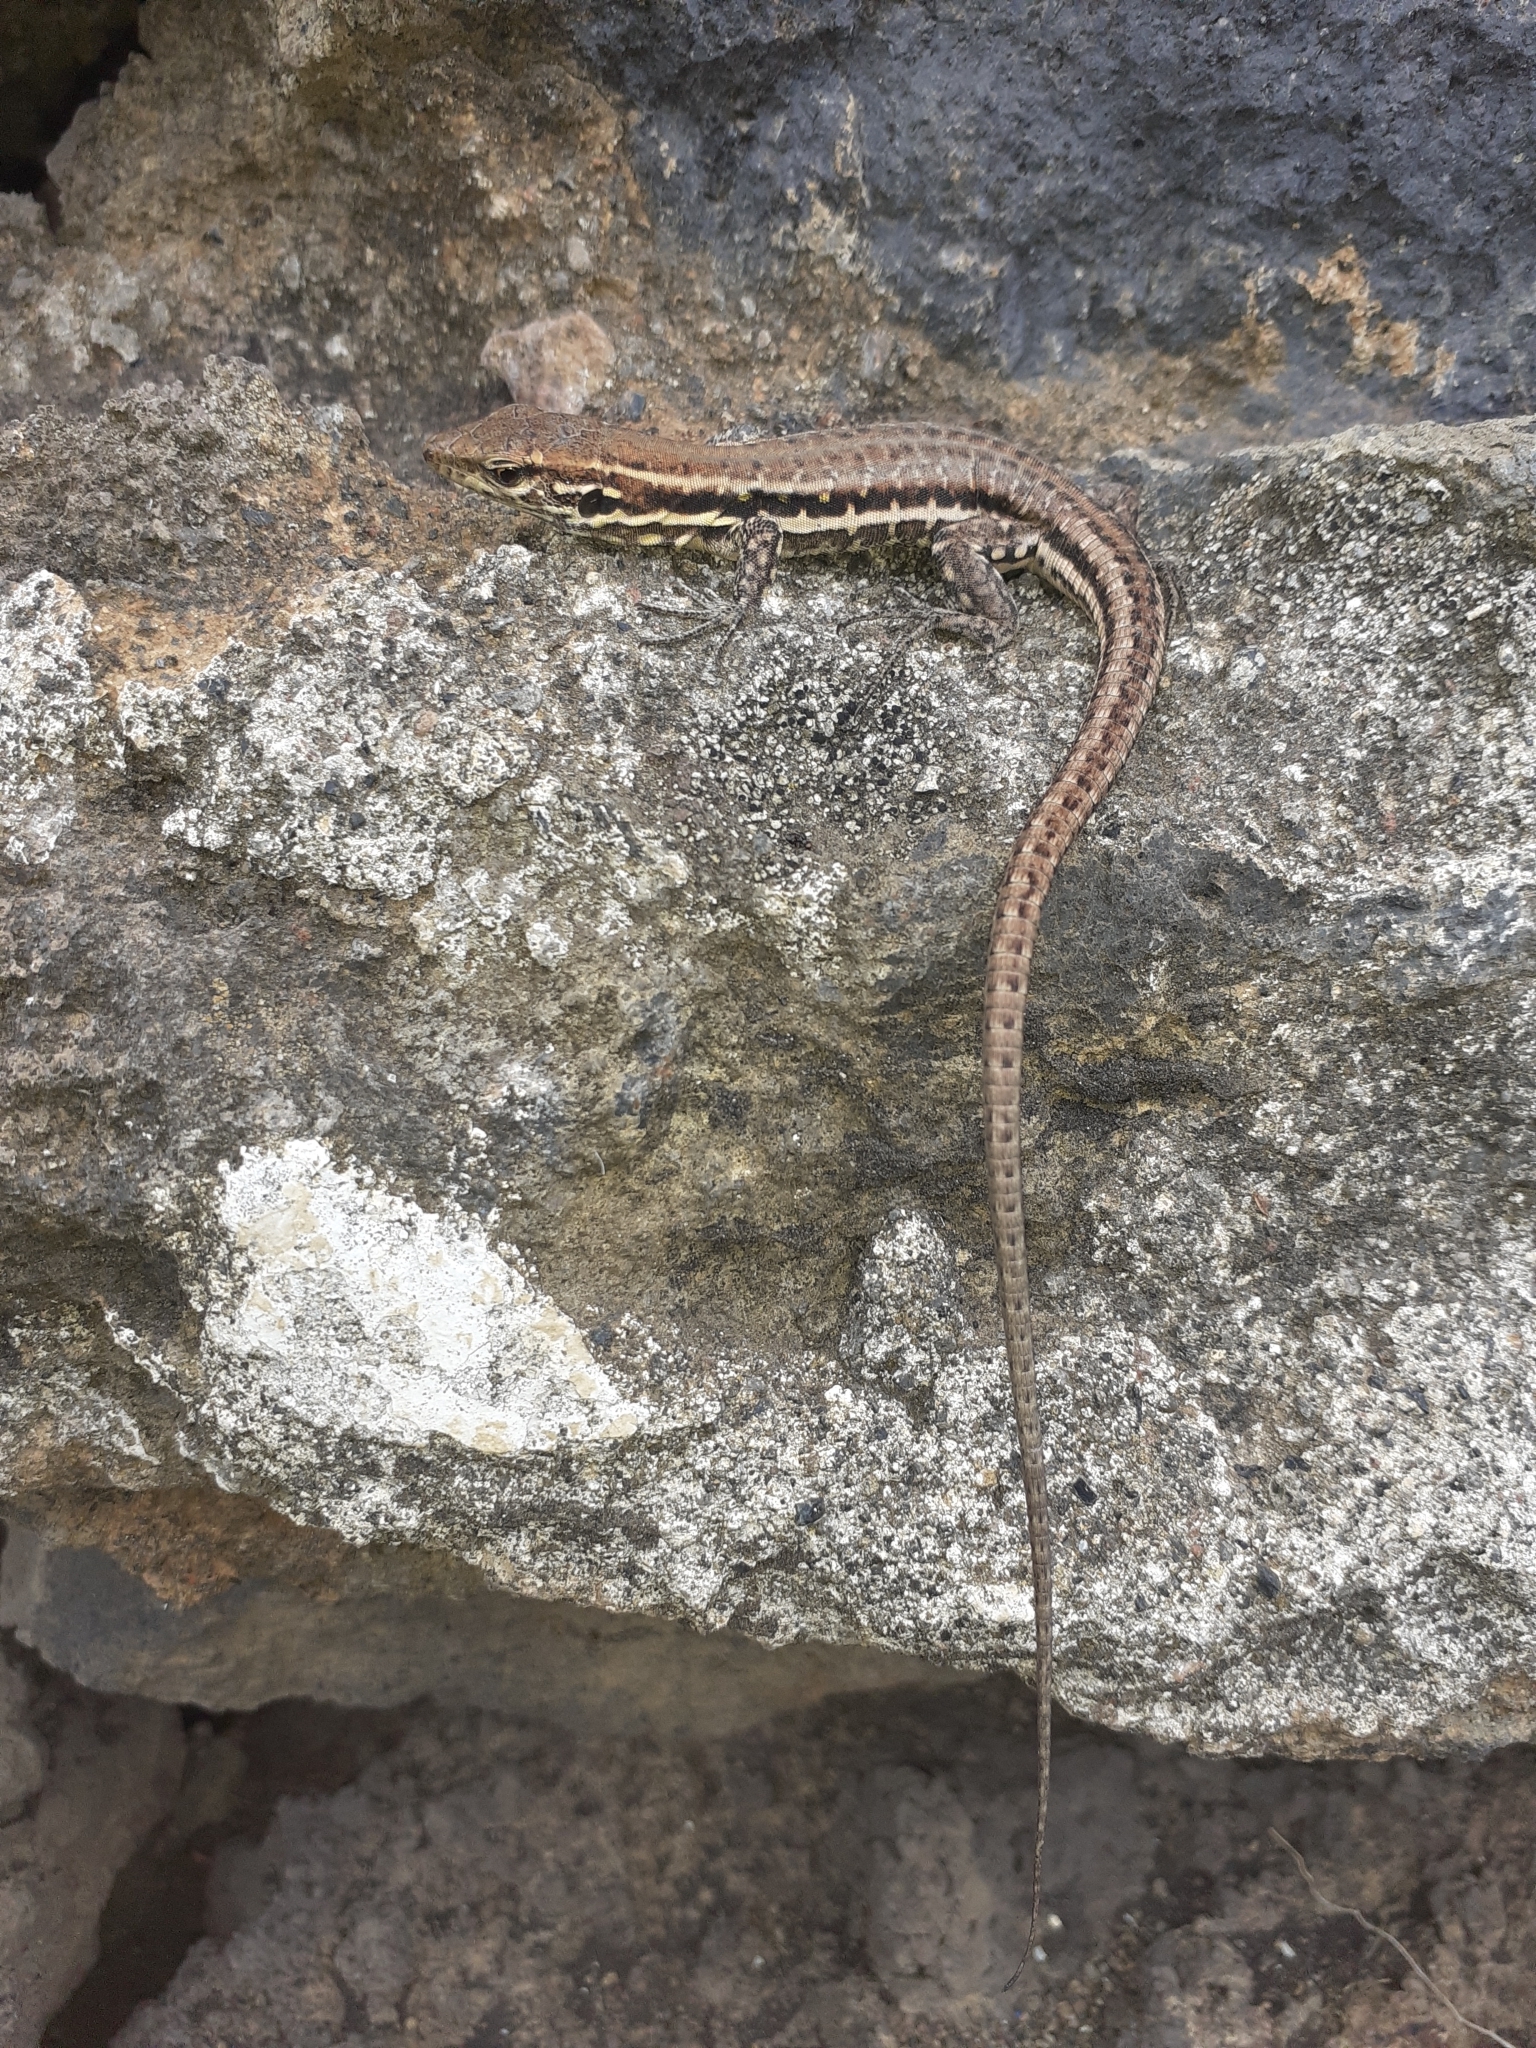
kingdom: Animalia
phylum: Chordata
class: Squamata
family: Lacertidae
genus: Gallotia
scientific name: Gallotia galloti
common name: Gallot's lizard
